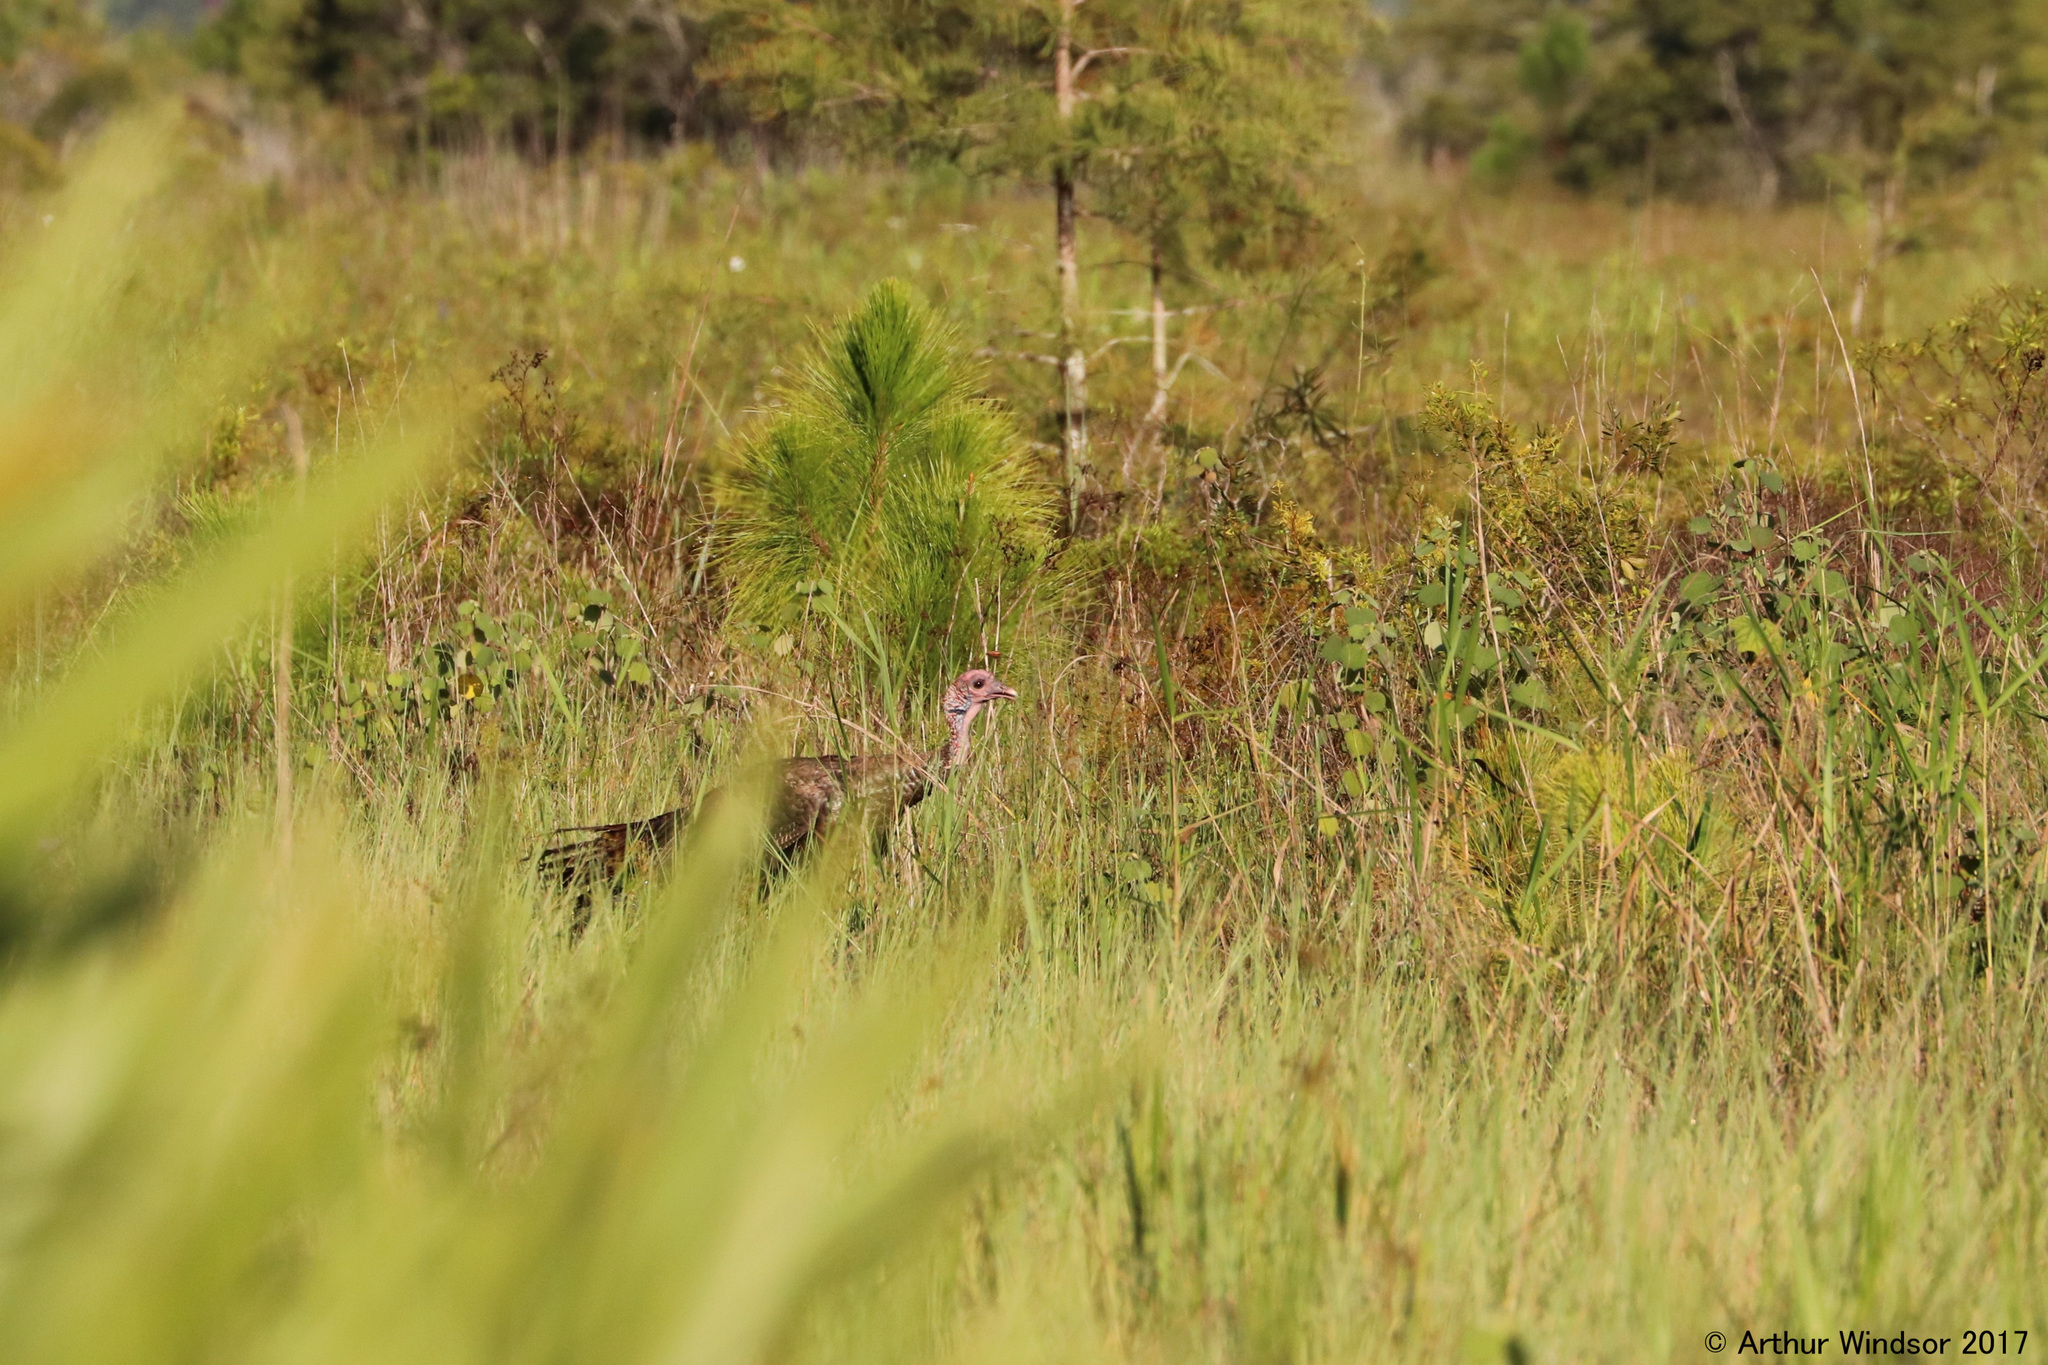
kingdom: Animalia
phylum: Chordata
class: Aves
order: Galliformes
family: Phasianidae
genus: Meleagris
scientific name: Meleagris gallopavo
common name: Wild turkey
